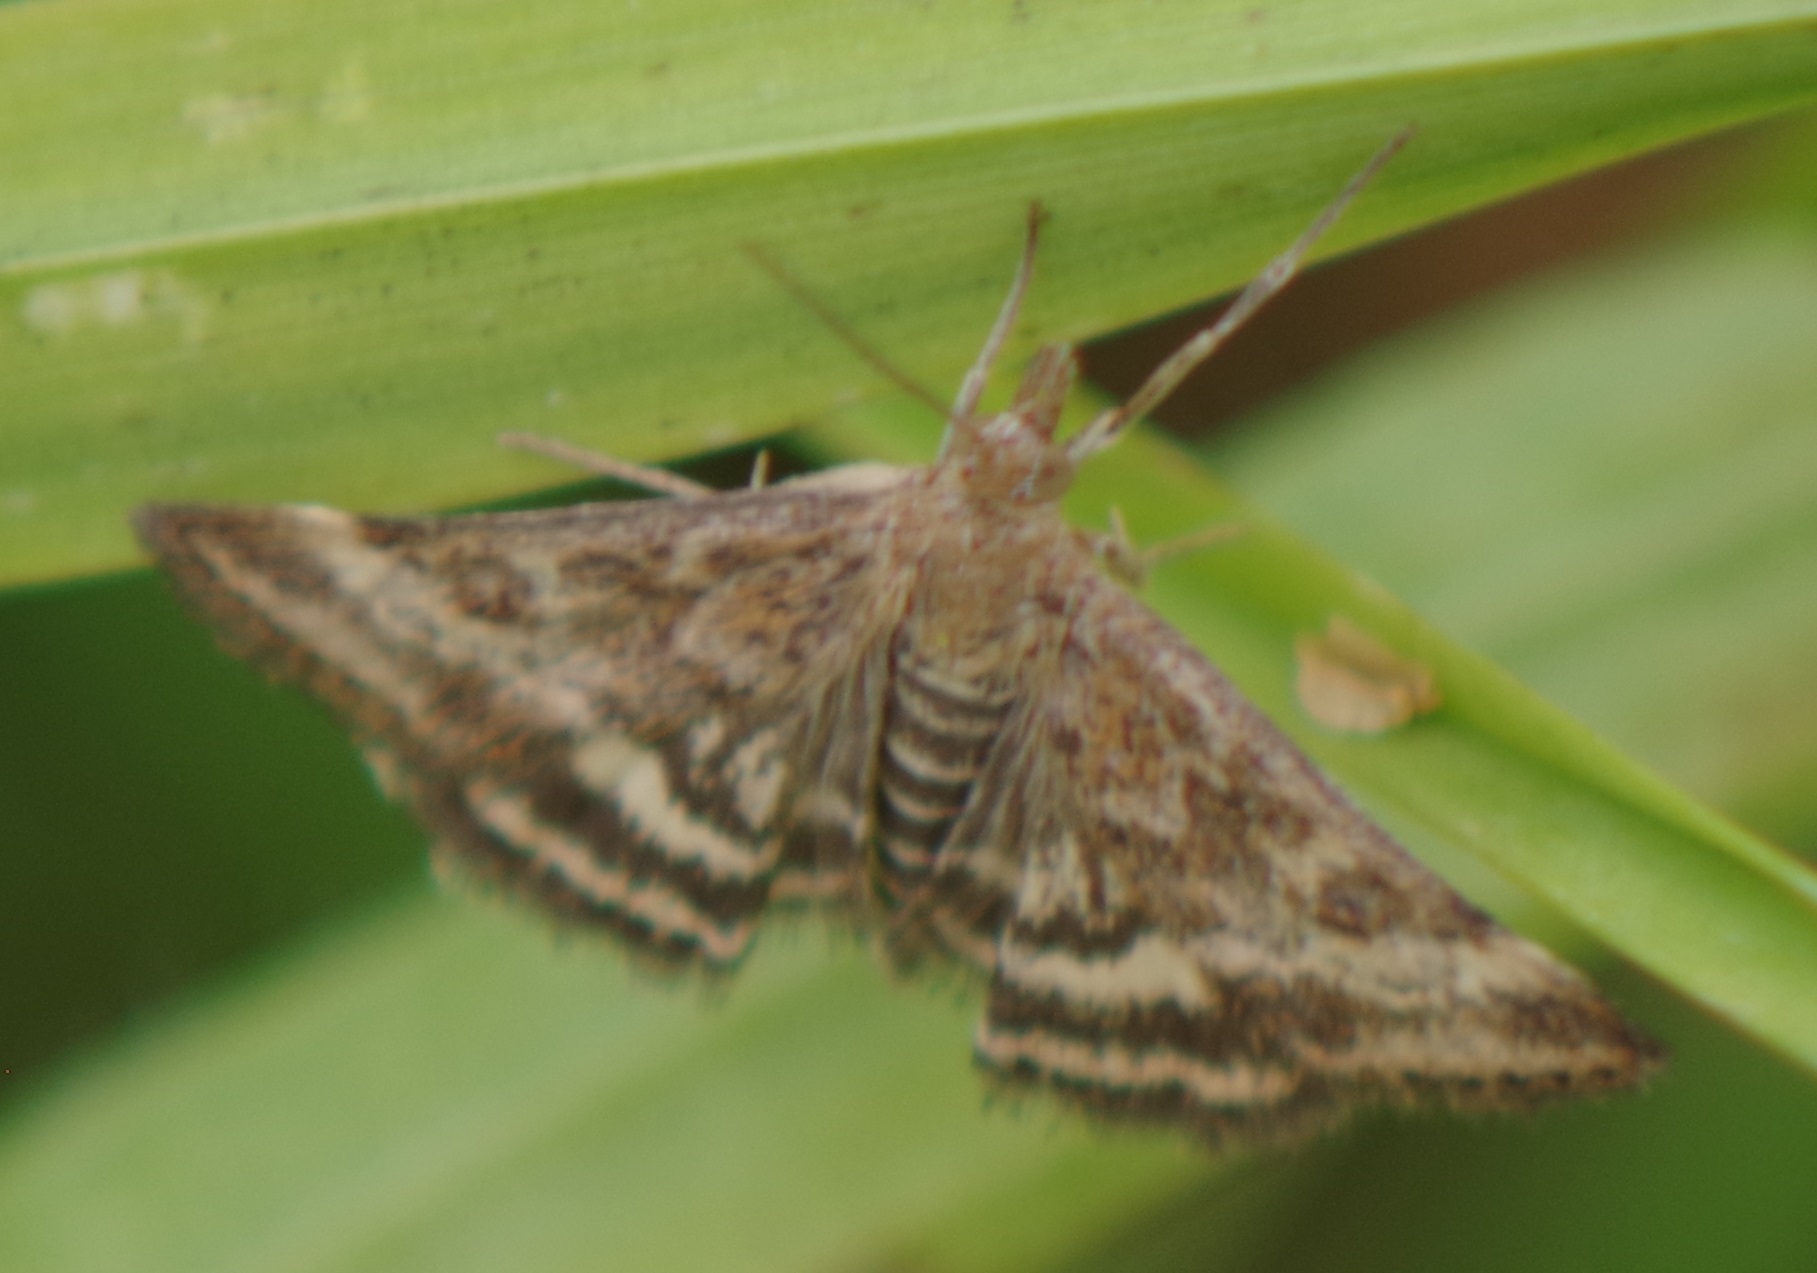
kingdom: Animalia
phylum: Arthropoda
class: Insecta
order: Lepidoptera
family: Crambidae
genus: Pyrausta
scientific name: Pyrausta despicata
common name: Straw-barred pearl
